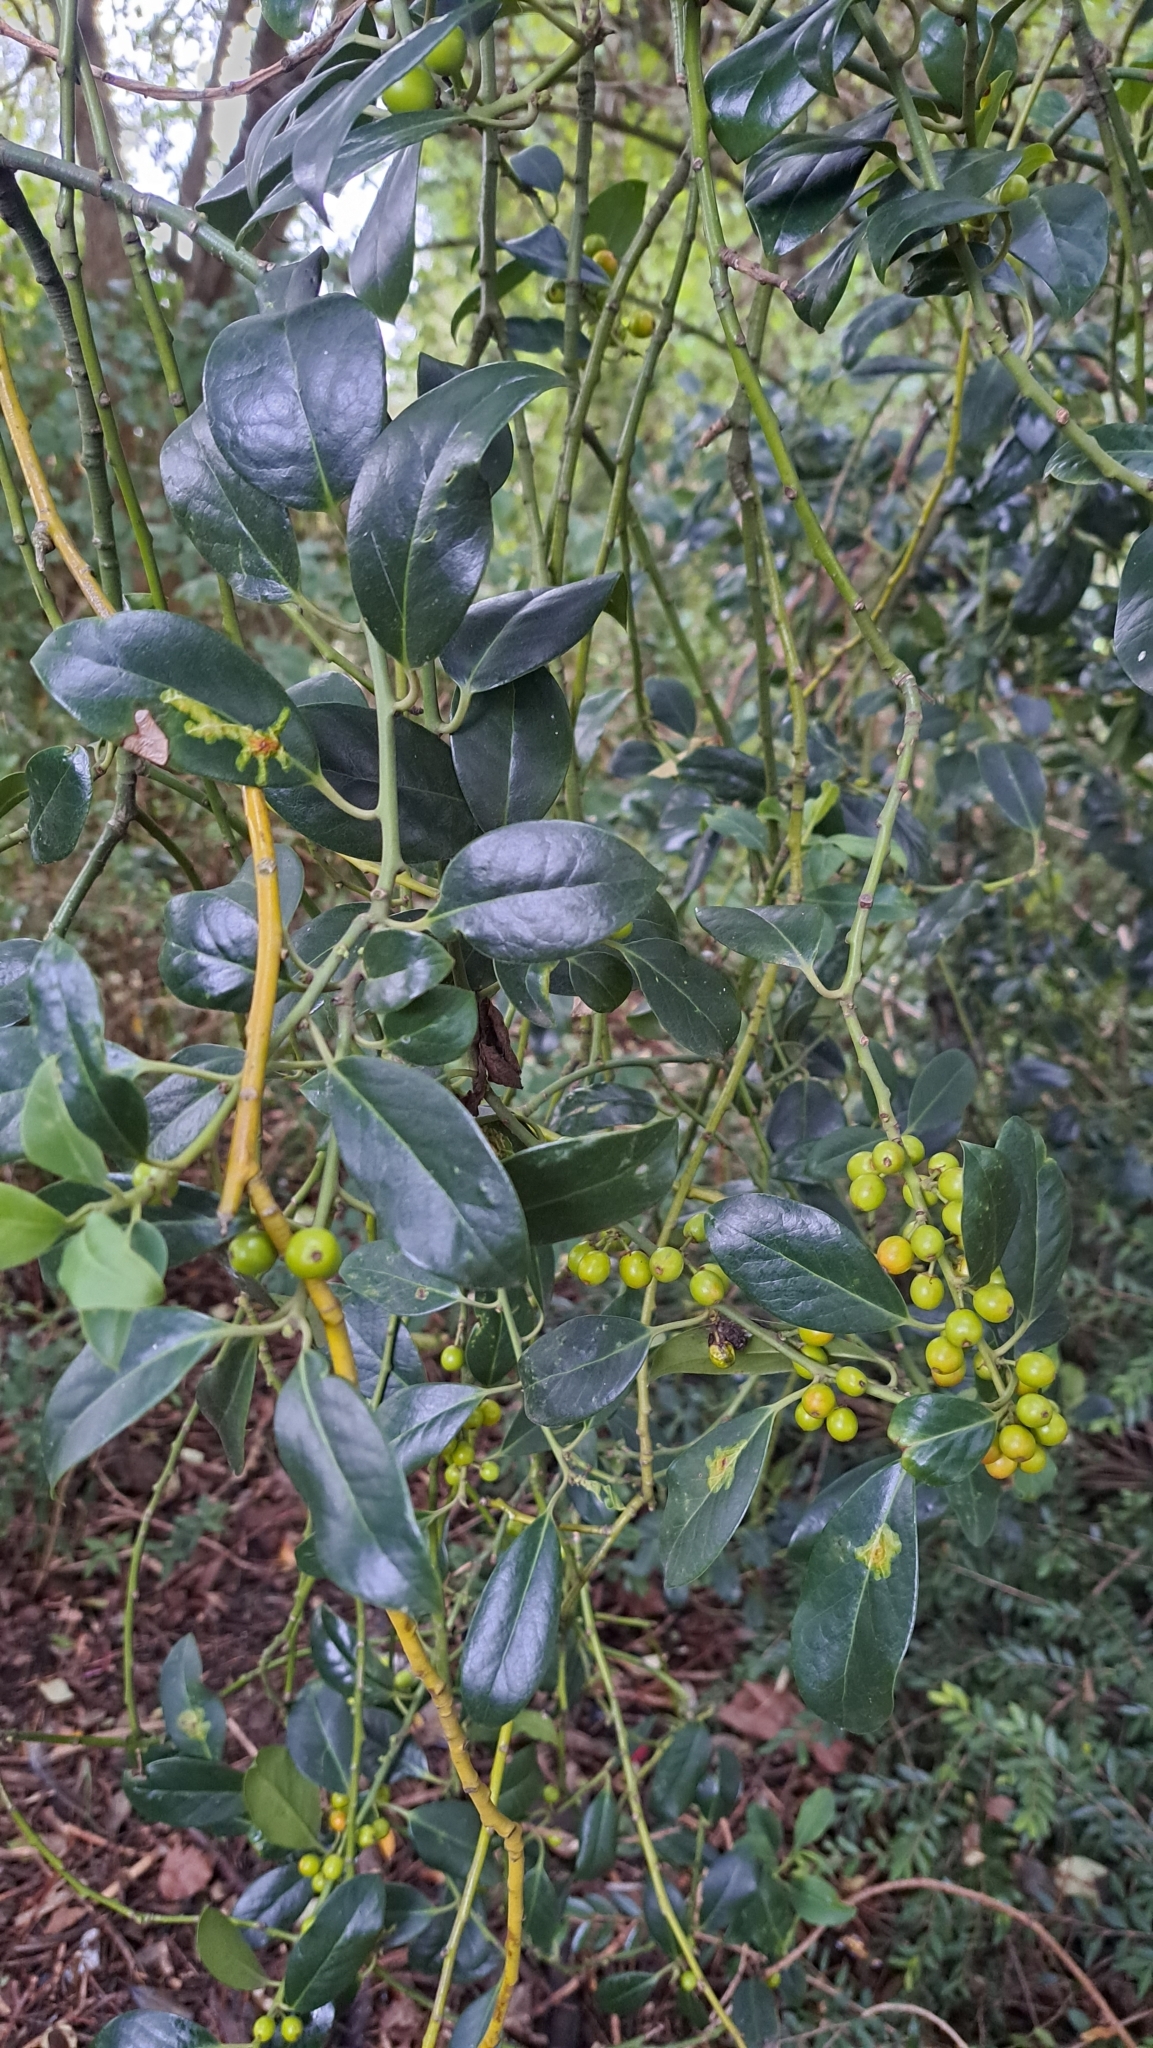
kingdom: Plantae
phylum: Tracheophyta
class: Magnoliopsida
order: Aquifoliales
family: Aquifoliaceae
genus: Ilex
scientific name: Ilex aquifolium
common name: English holly
